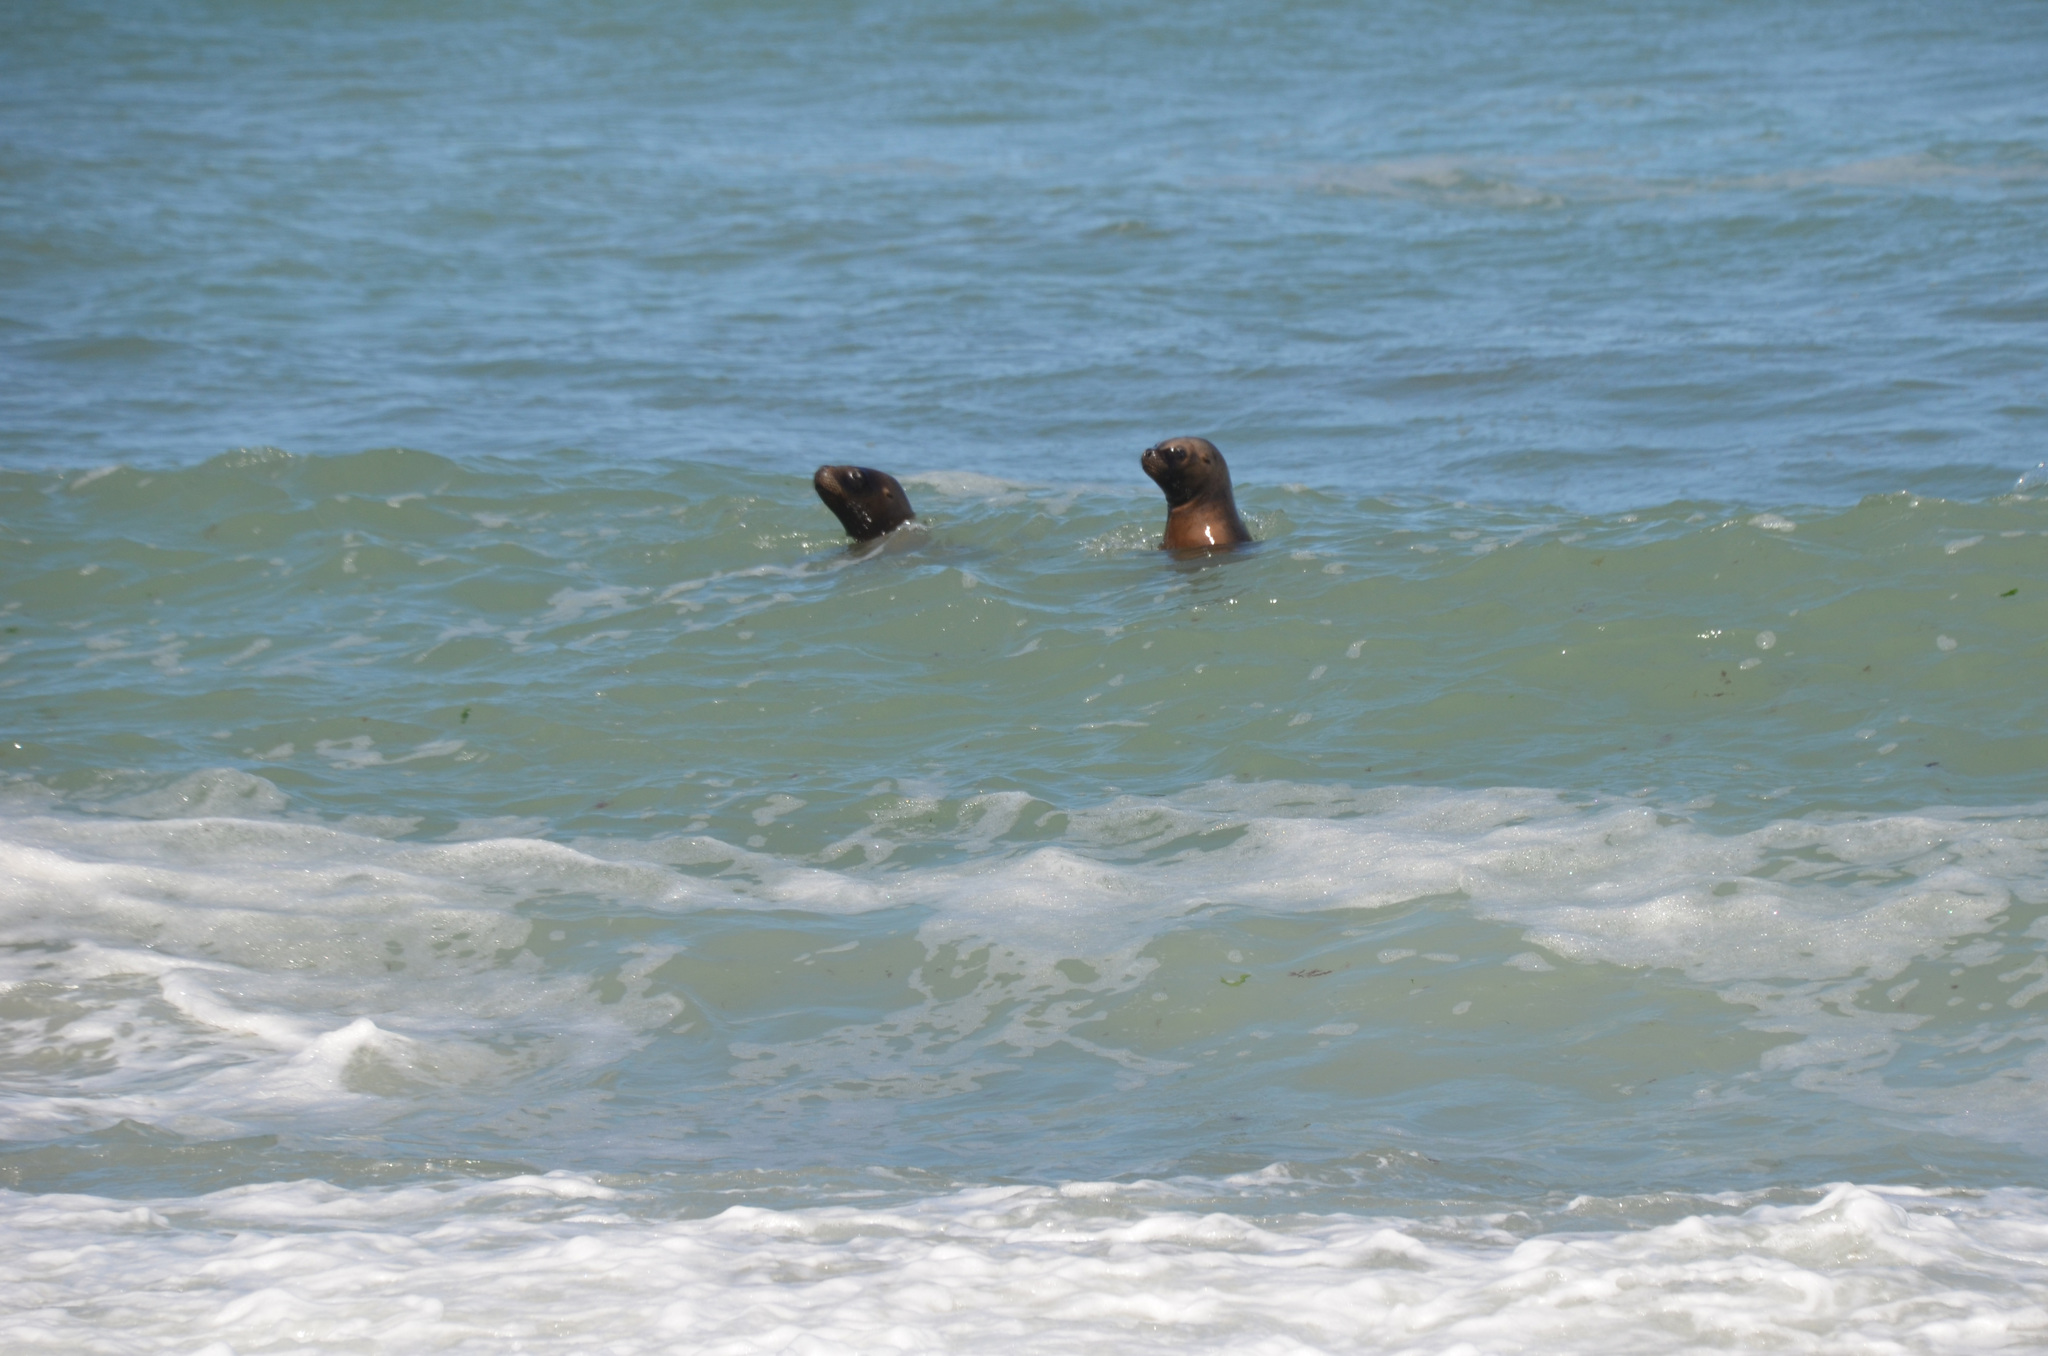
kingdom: Animalia
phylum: Chordata
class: Mammalia
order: Carnivora
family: Otariidae
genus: Otaria
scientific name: Otaria byronia
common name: South american sea lion
